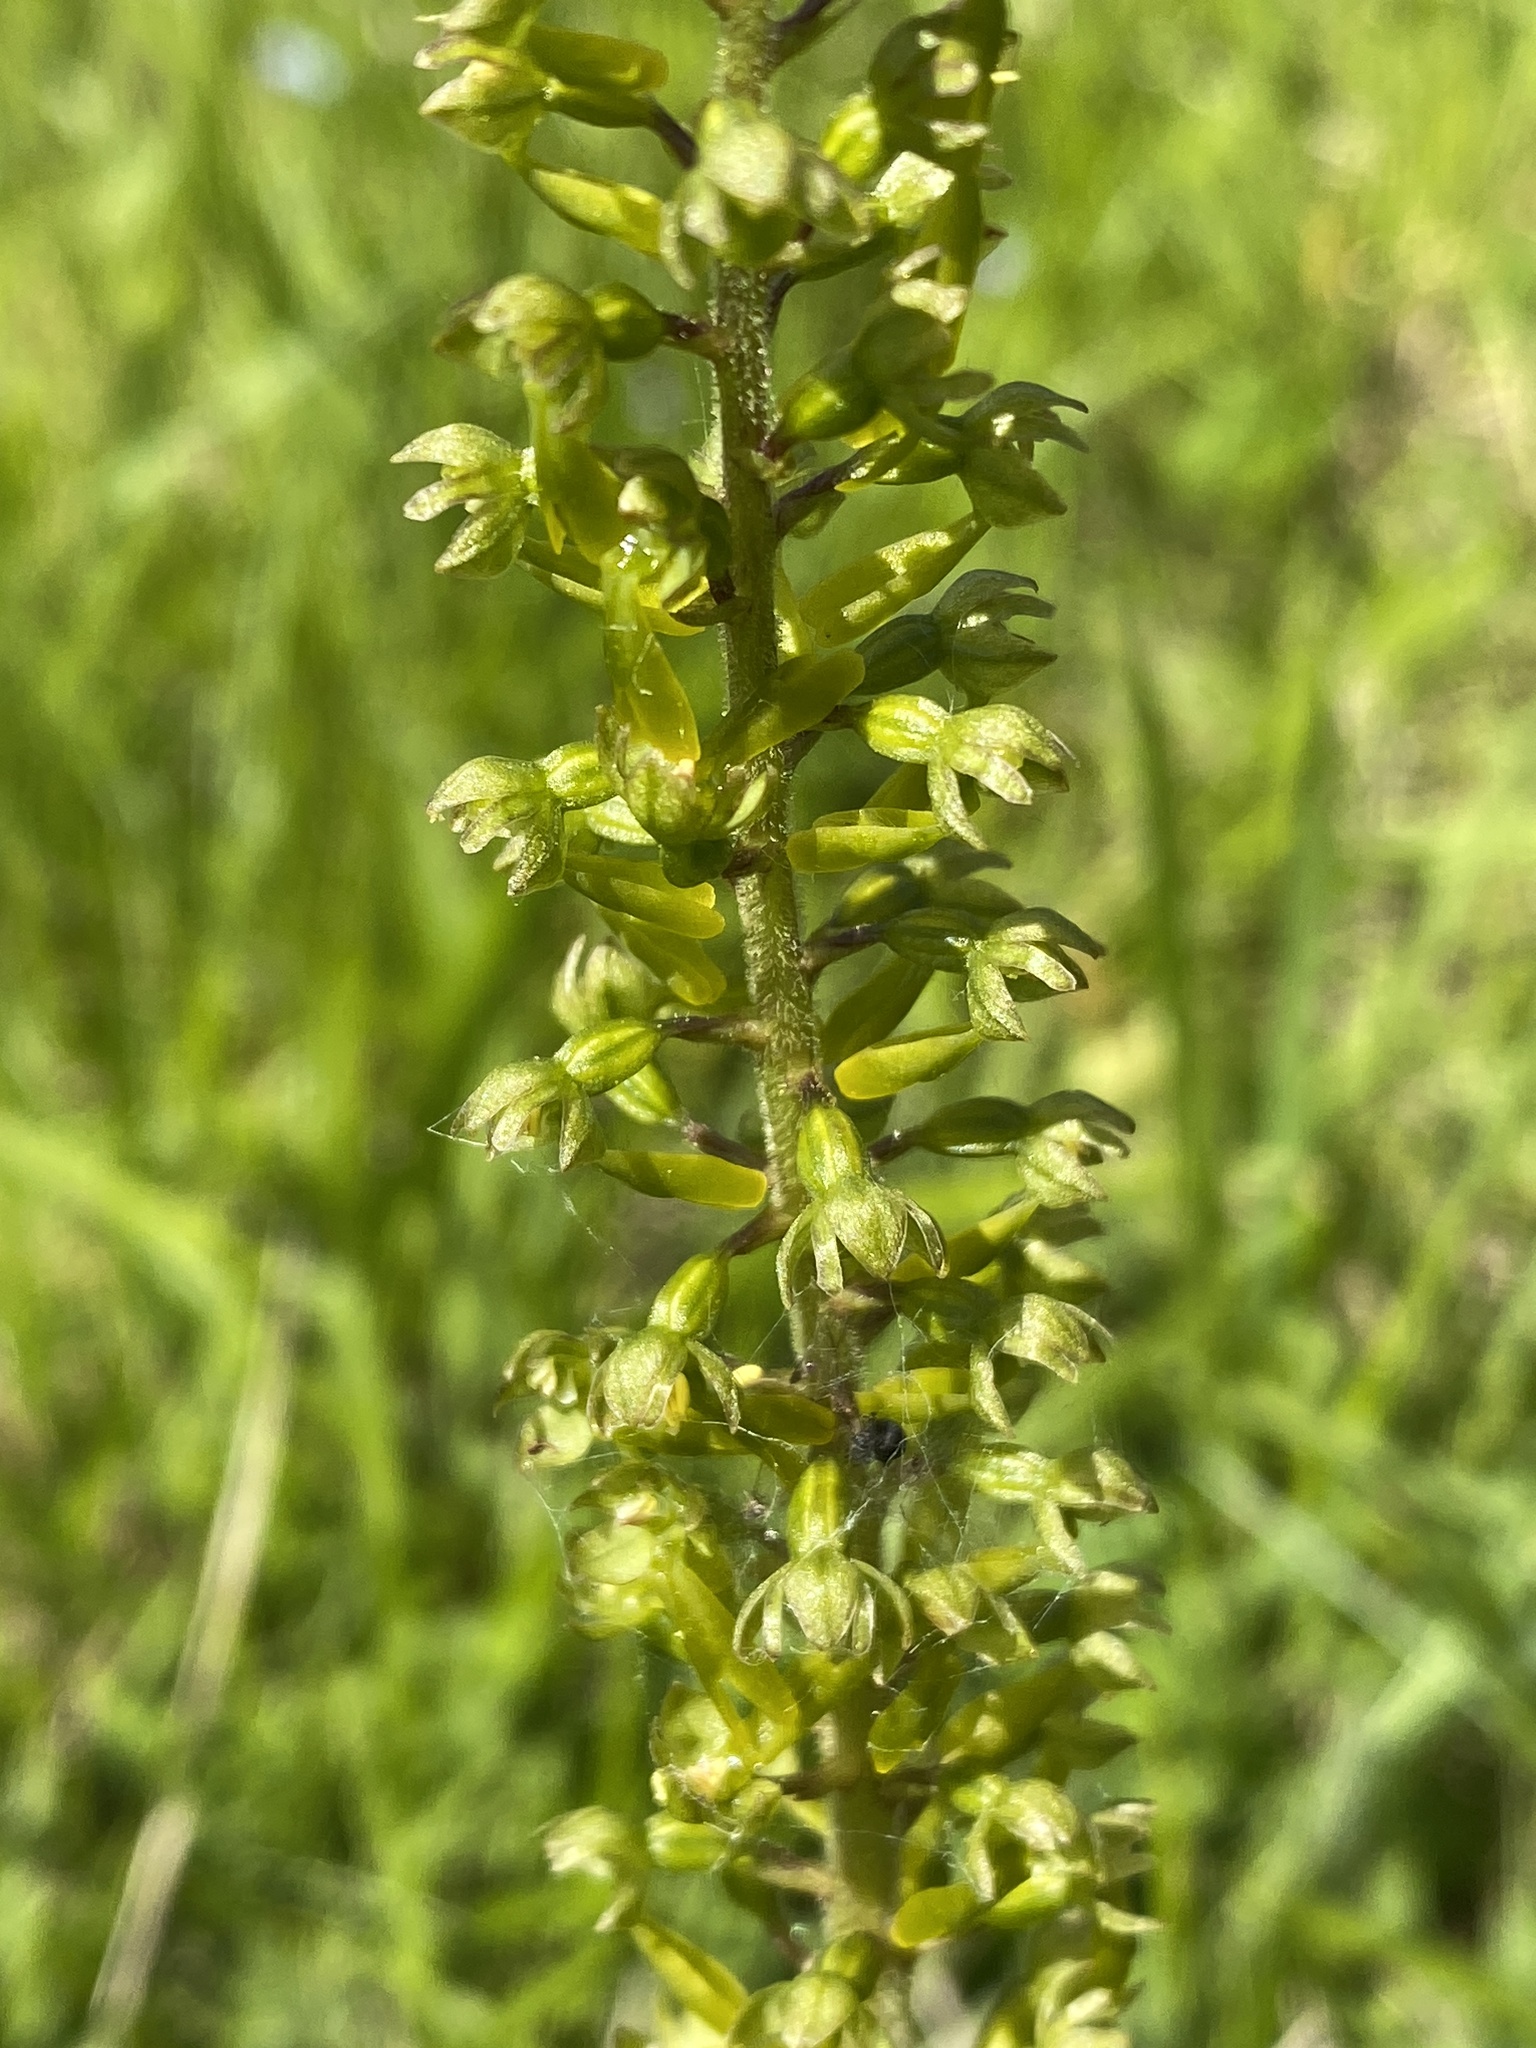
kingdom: Plantae
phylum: Tracheophyta
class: Liliopsida
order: Asparagales
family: Orchidaceae
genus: Neottia
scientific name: Neottia ovata
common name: Common twayblade
